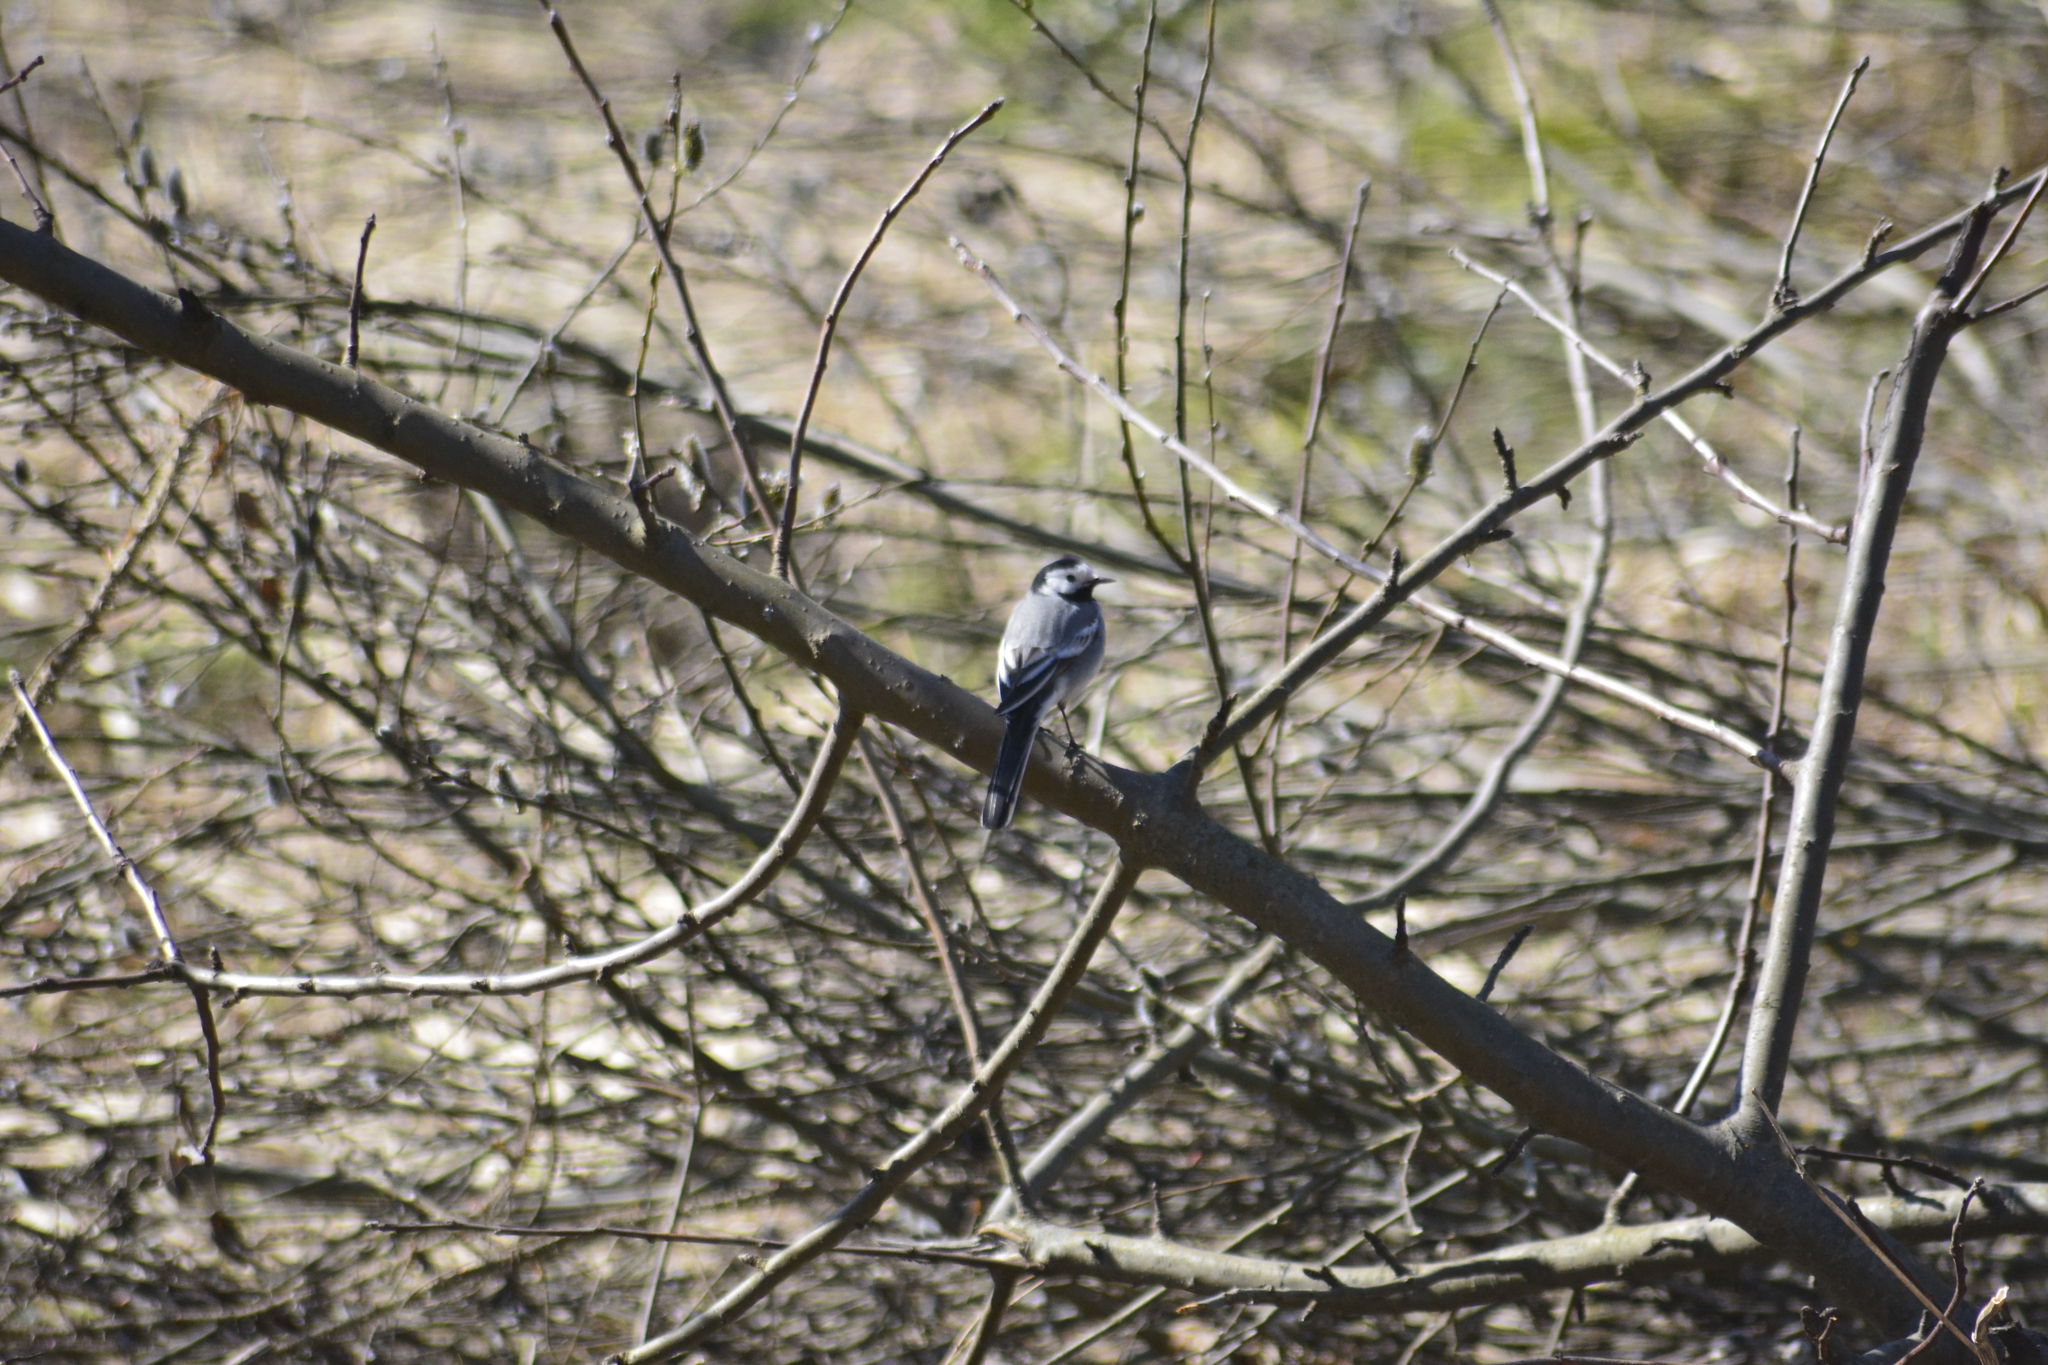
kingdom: Animalia
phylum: Chordata
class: Aves
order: Passeriformes
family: Motacillidae
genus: Motacilla
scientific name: Motacilla alba
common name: White wagtail
